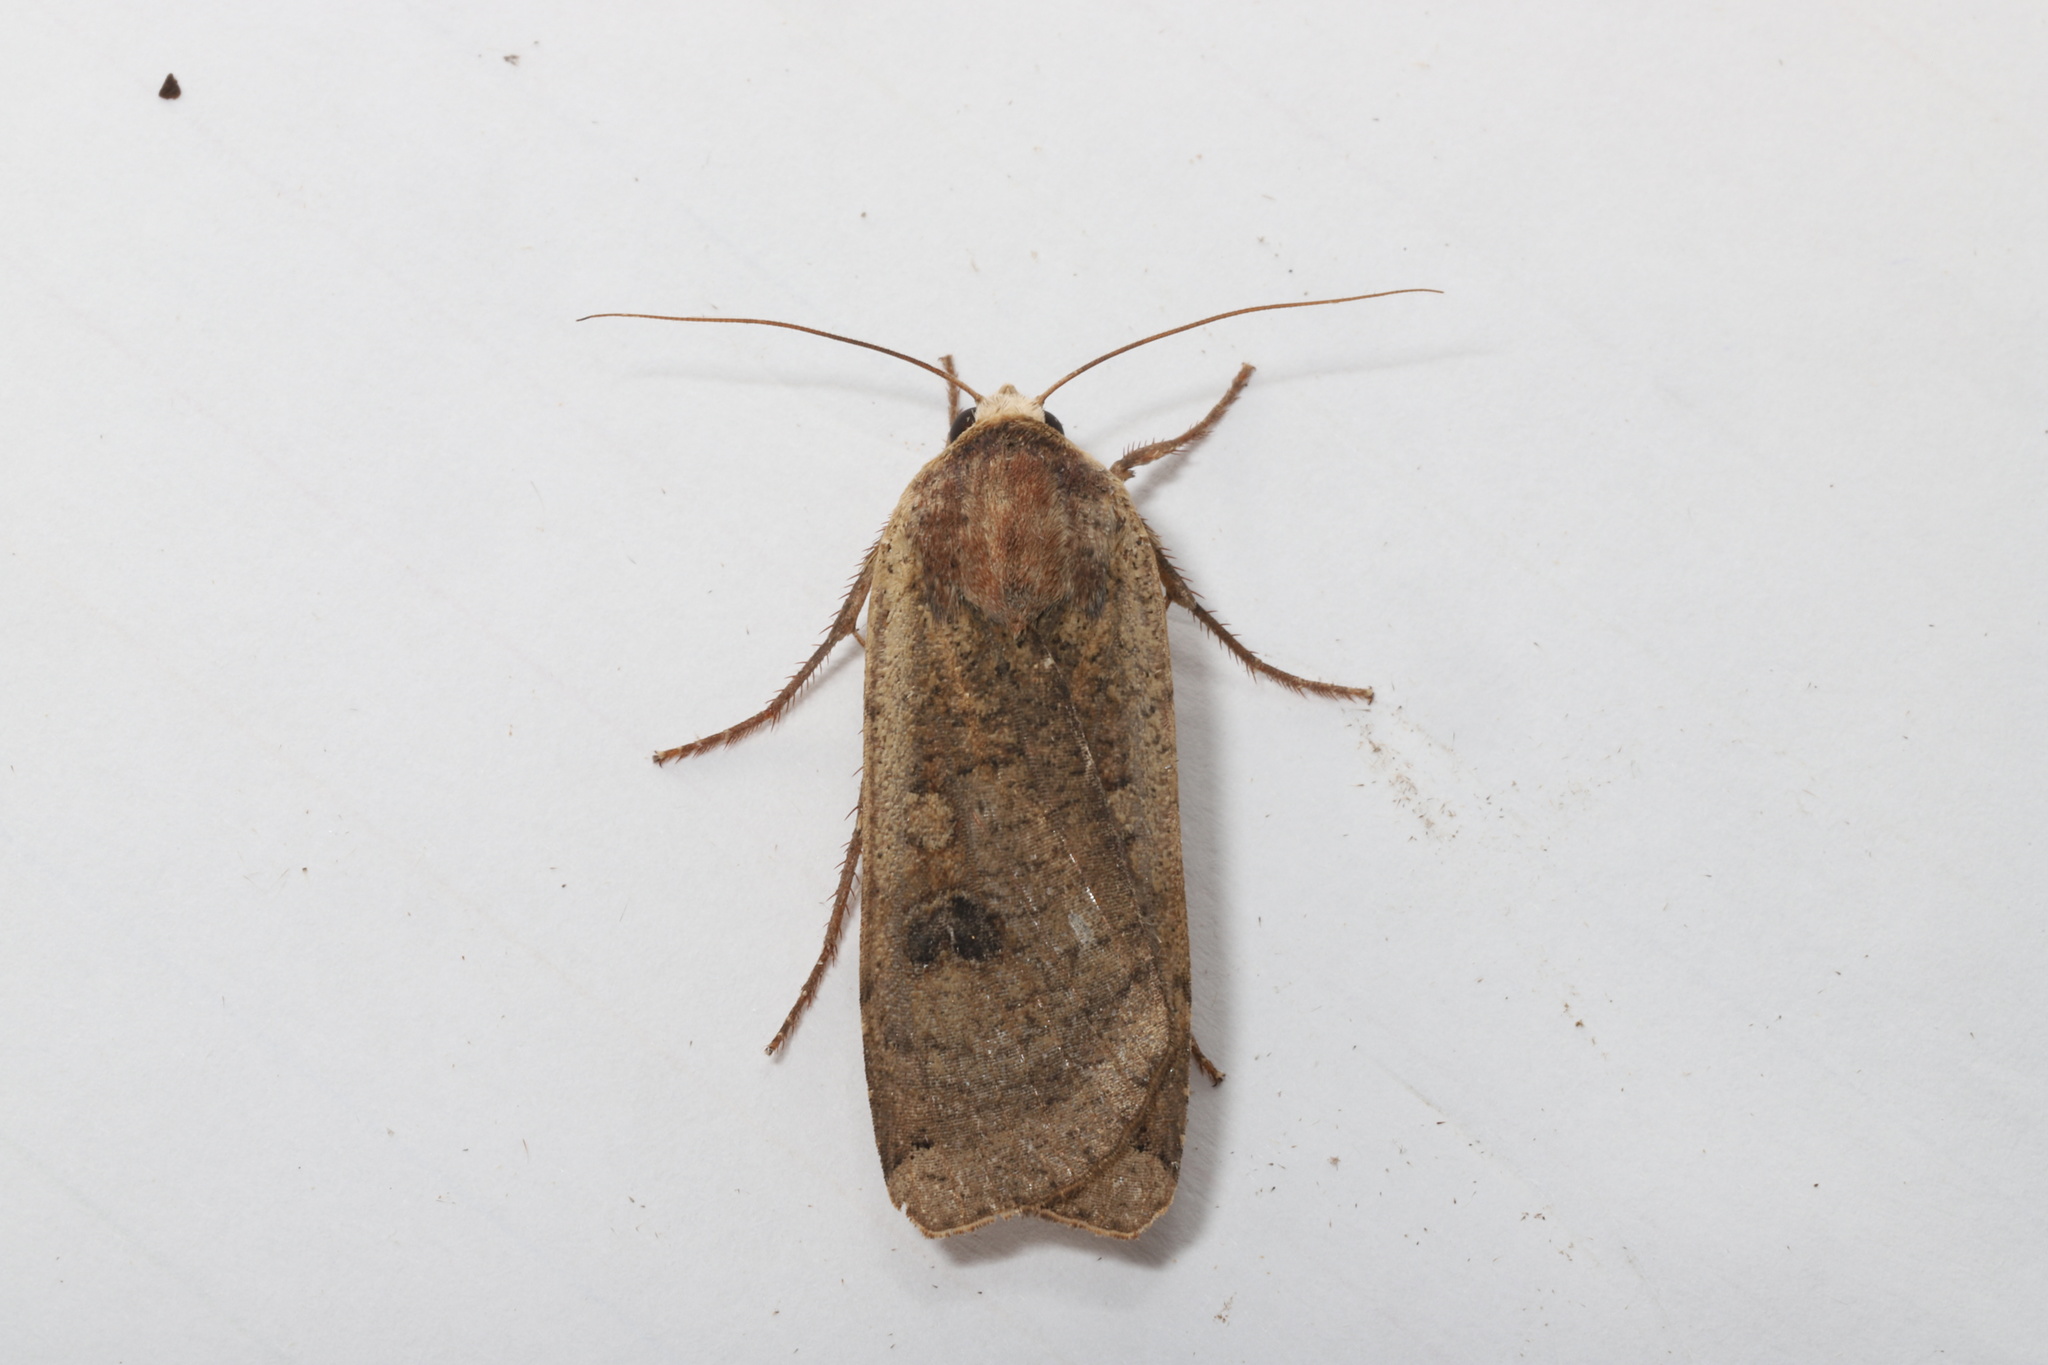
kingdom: Animalia
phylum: Arthropoda
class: Insecta
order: Lepidoptera
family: Noctuidae
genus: Noctua
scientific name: Noctua pronuba
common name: Large yellow underwing
